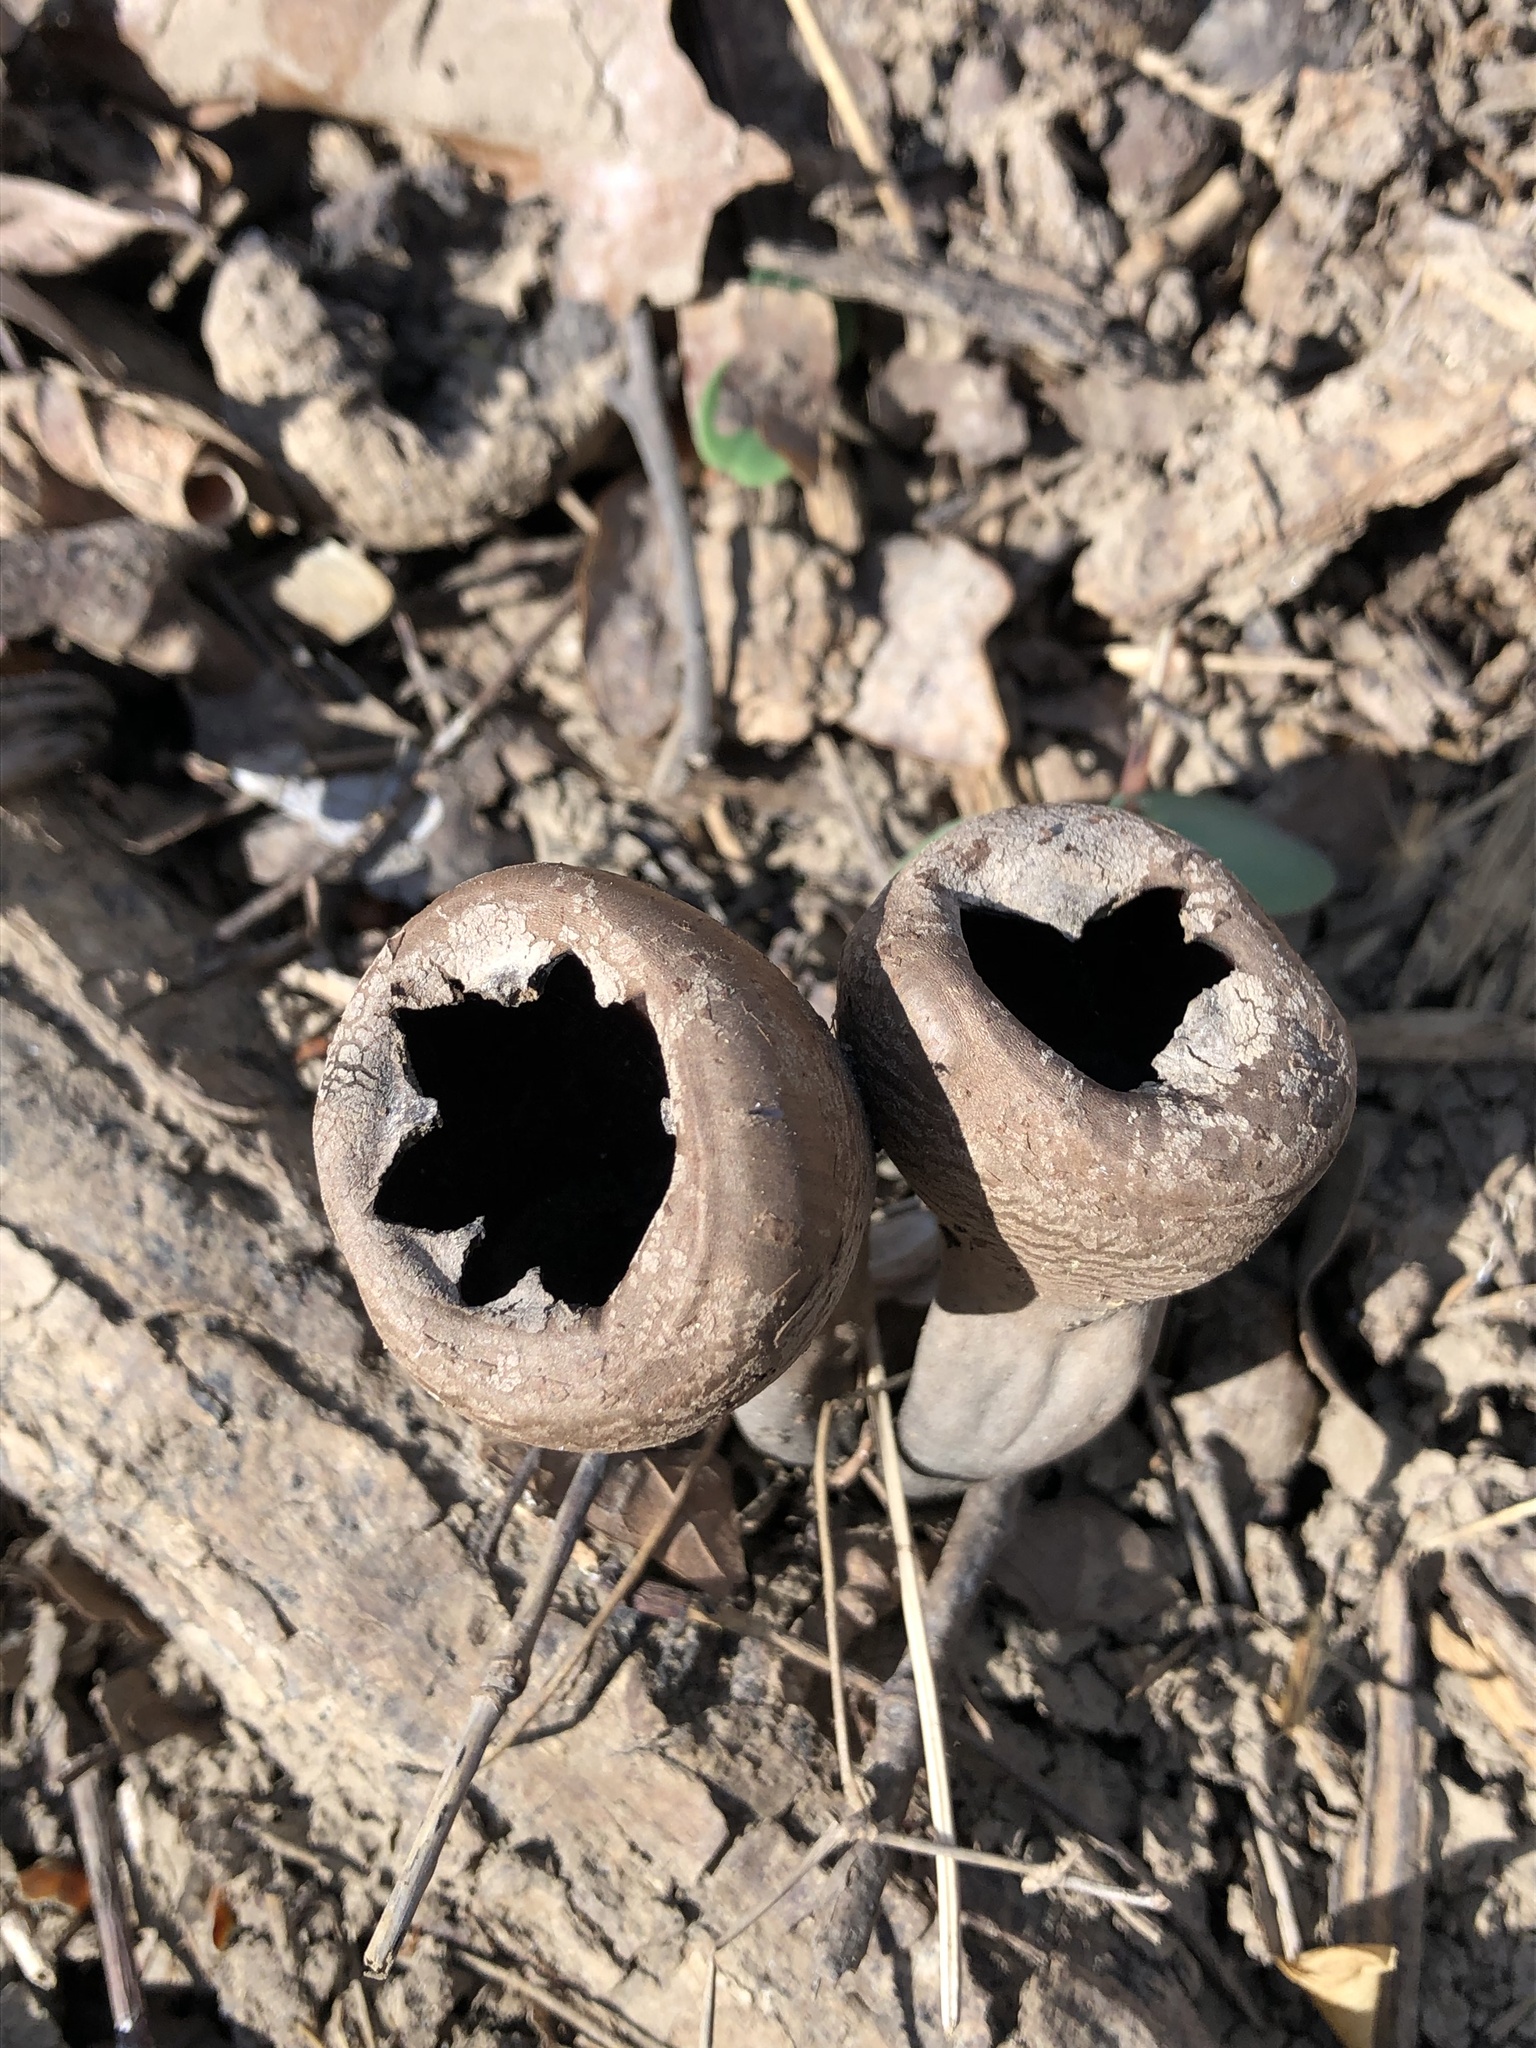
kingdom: Fungi
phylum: Ascomycota
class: Pezizomycetes
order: Pezizales
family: Sarcosomataceae
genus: Urnula
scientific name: Urnula craterium
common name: Devil's urn
